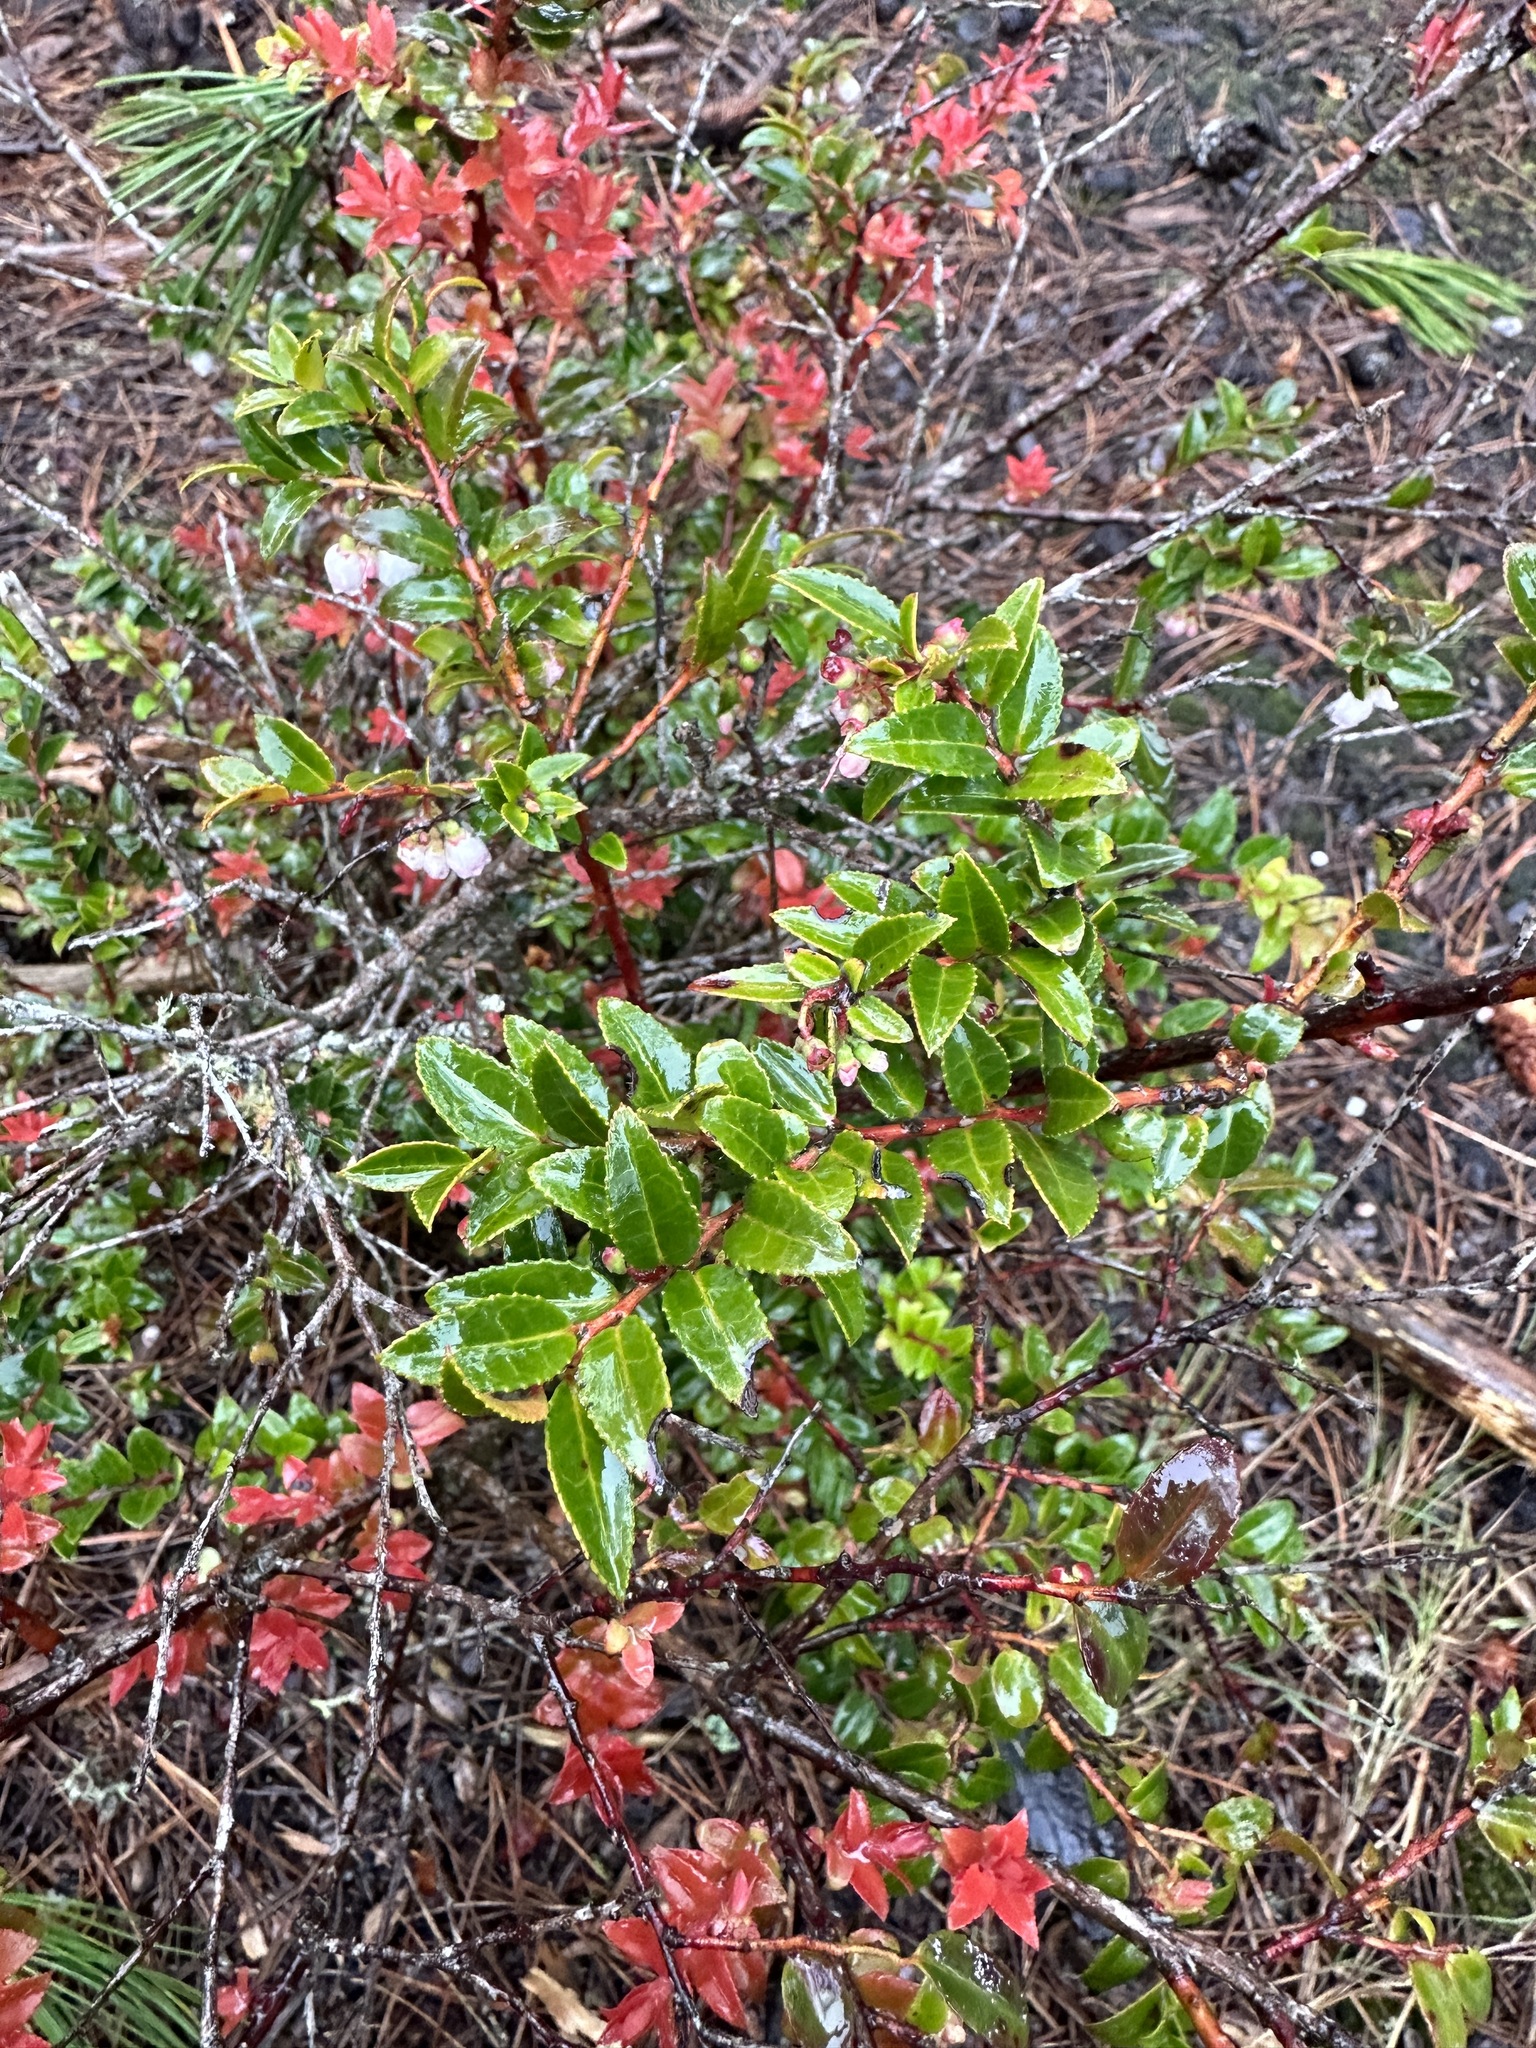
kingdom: Plantae
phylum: Tracheophyta
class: Magnoliopsida
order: Ericales
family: Ericaceae
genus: Vaccinium
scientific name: Vaccinium ovatum
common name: California-huckleberry
